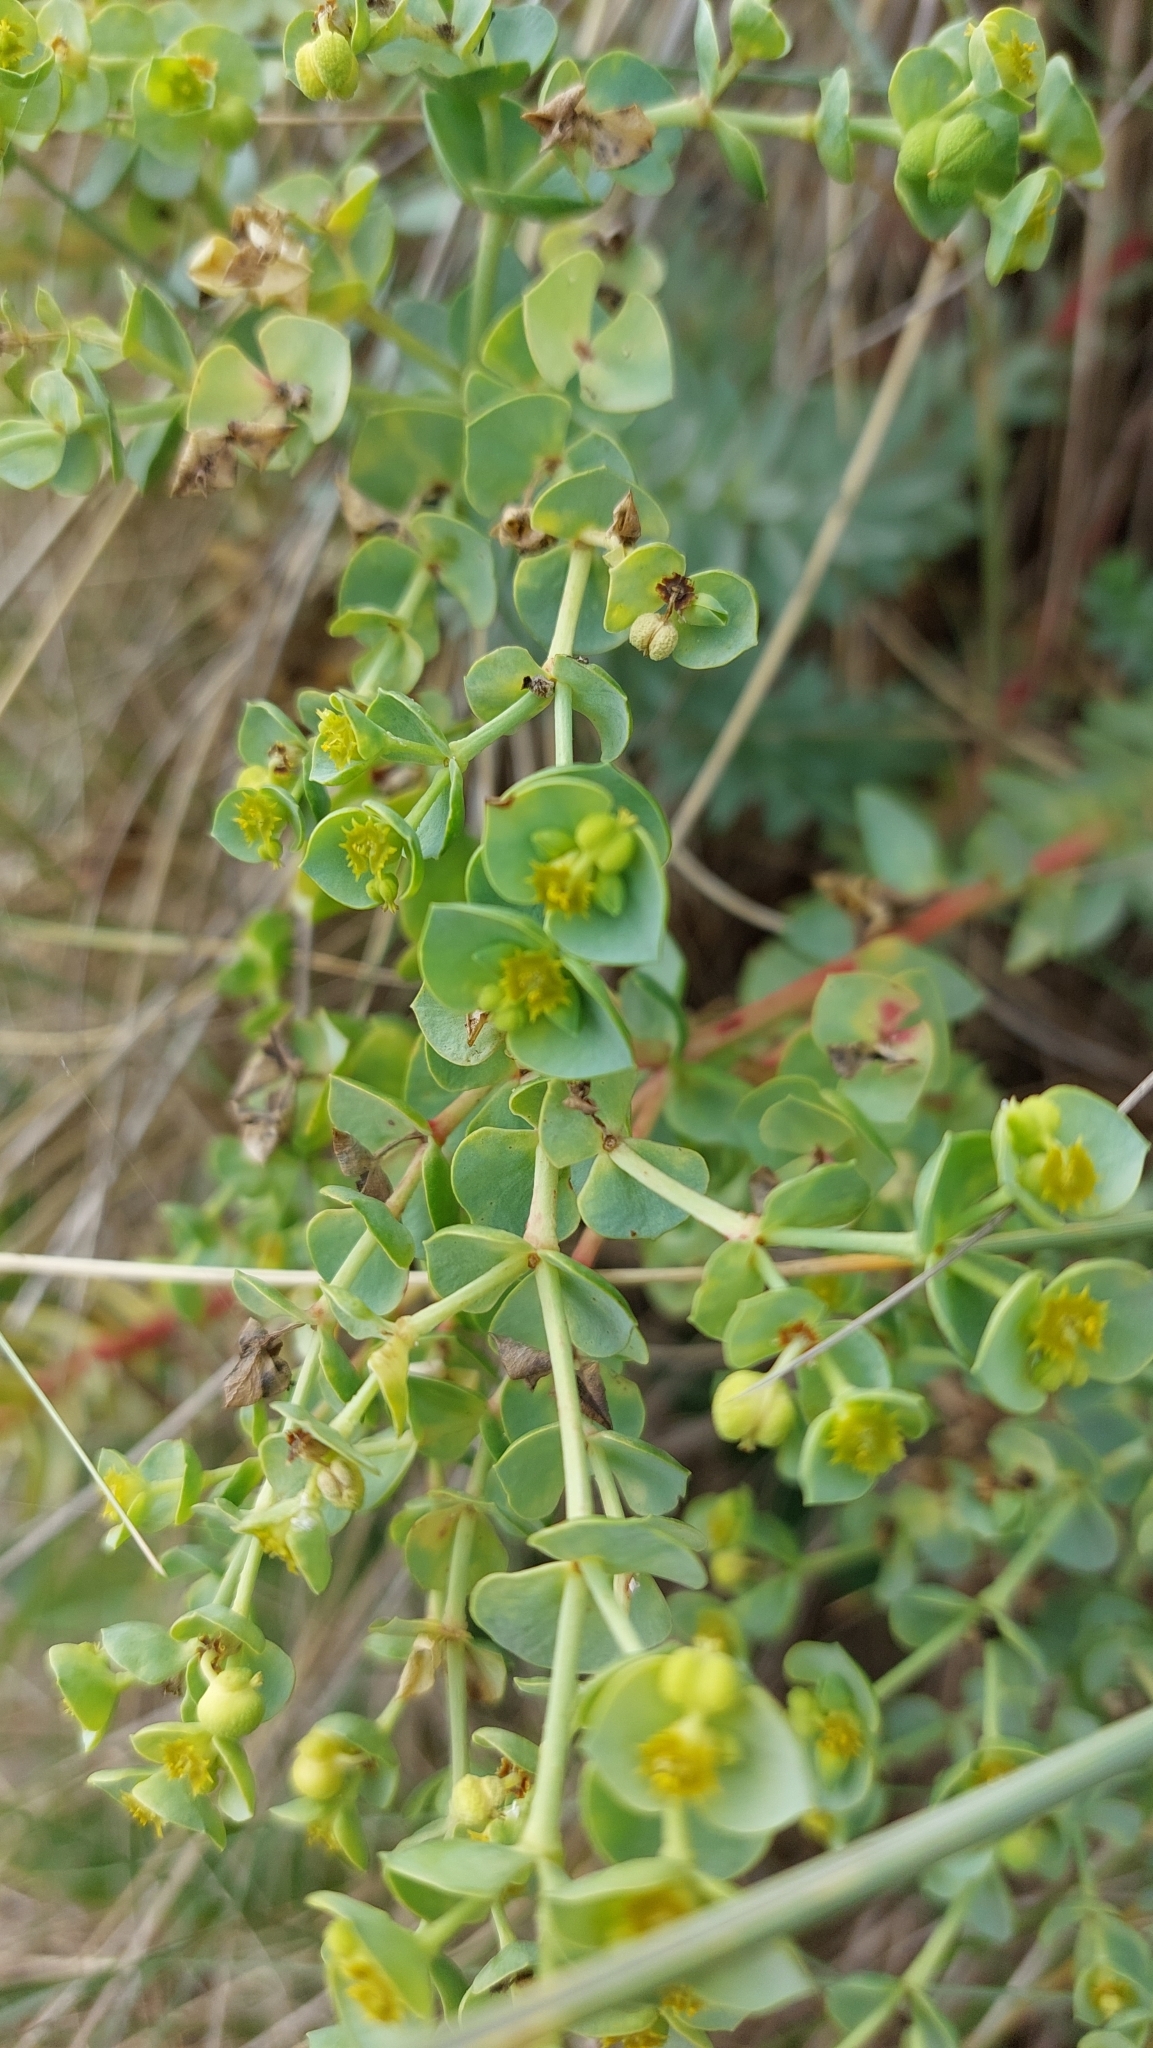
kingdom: Plantae
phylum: Tracheophyta
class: Magnoliopsida
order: Malpighiales
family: Euphorbiaceae
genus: Euphorbia
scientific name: Euphorbia paralias
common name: Sea spurge
